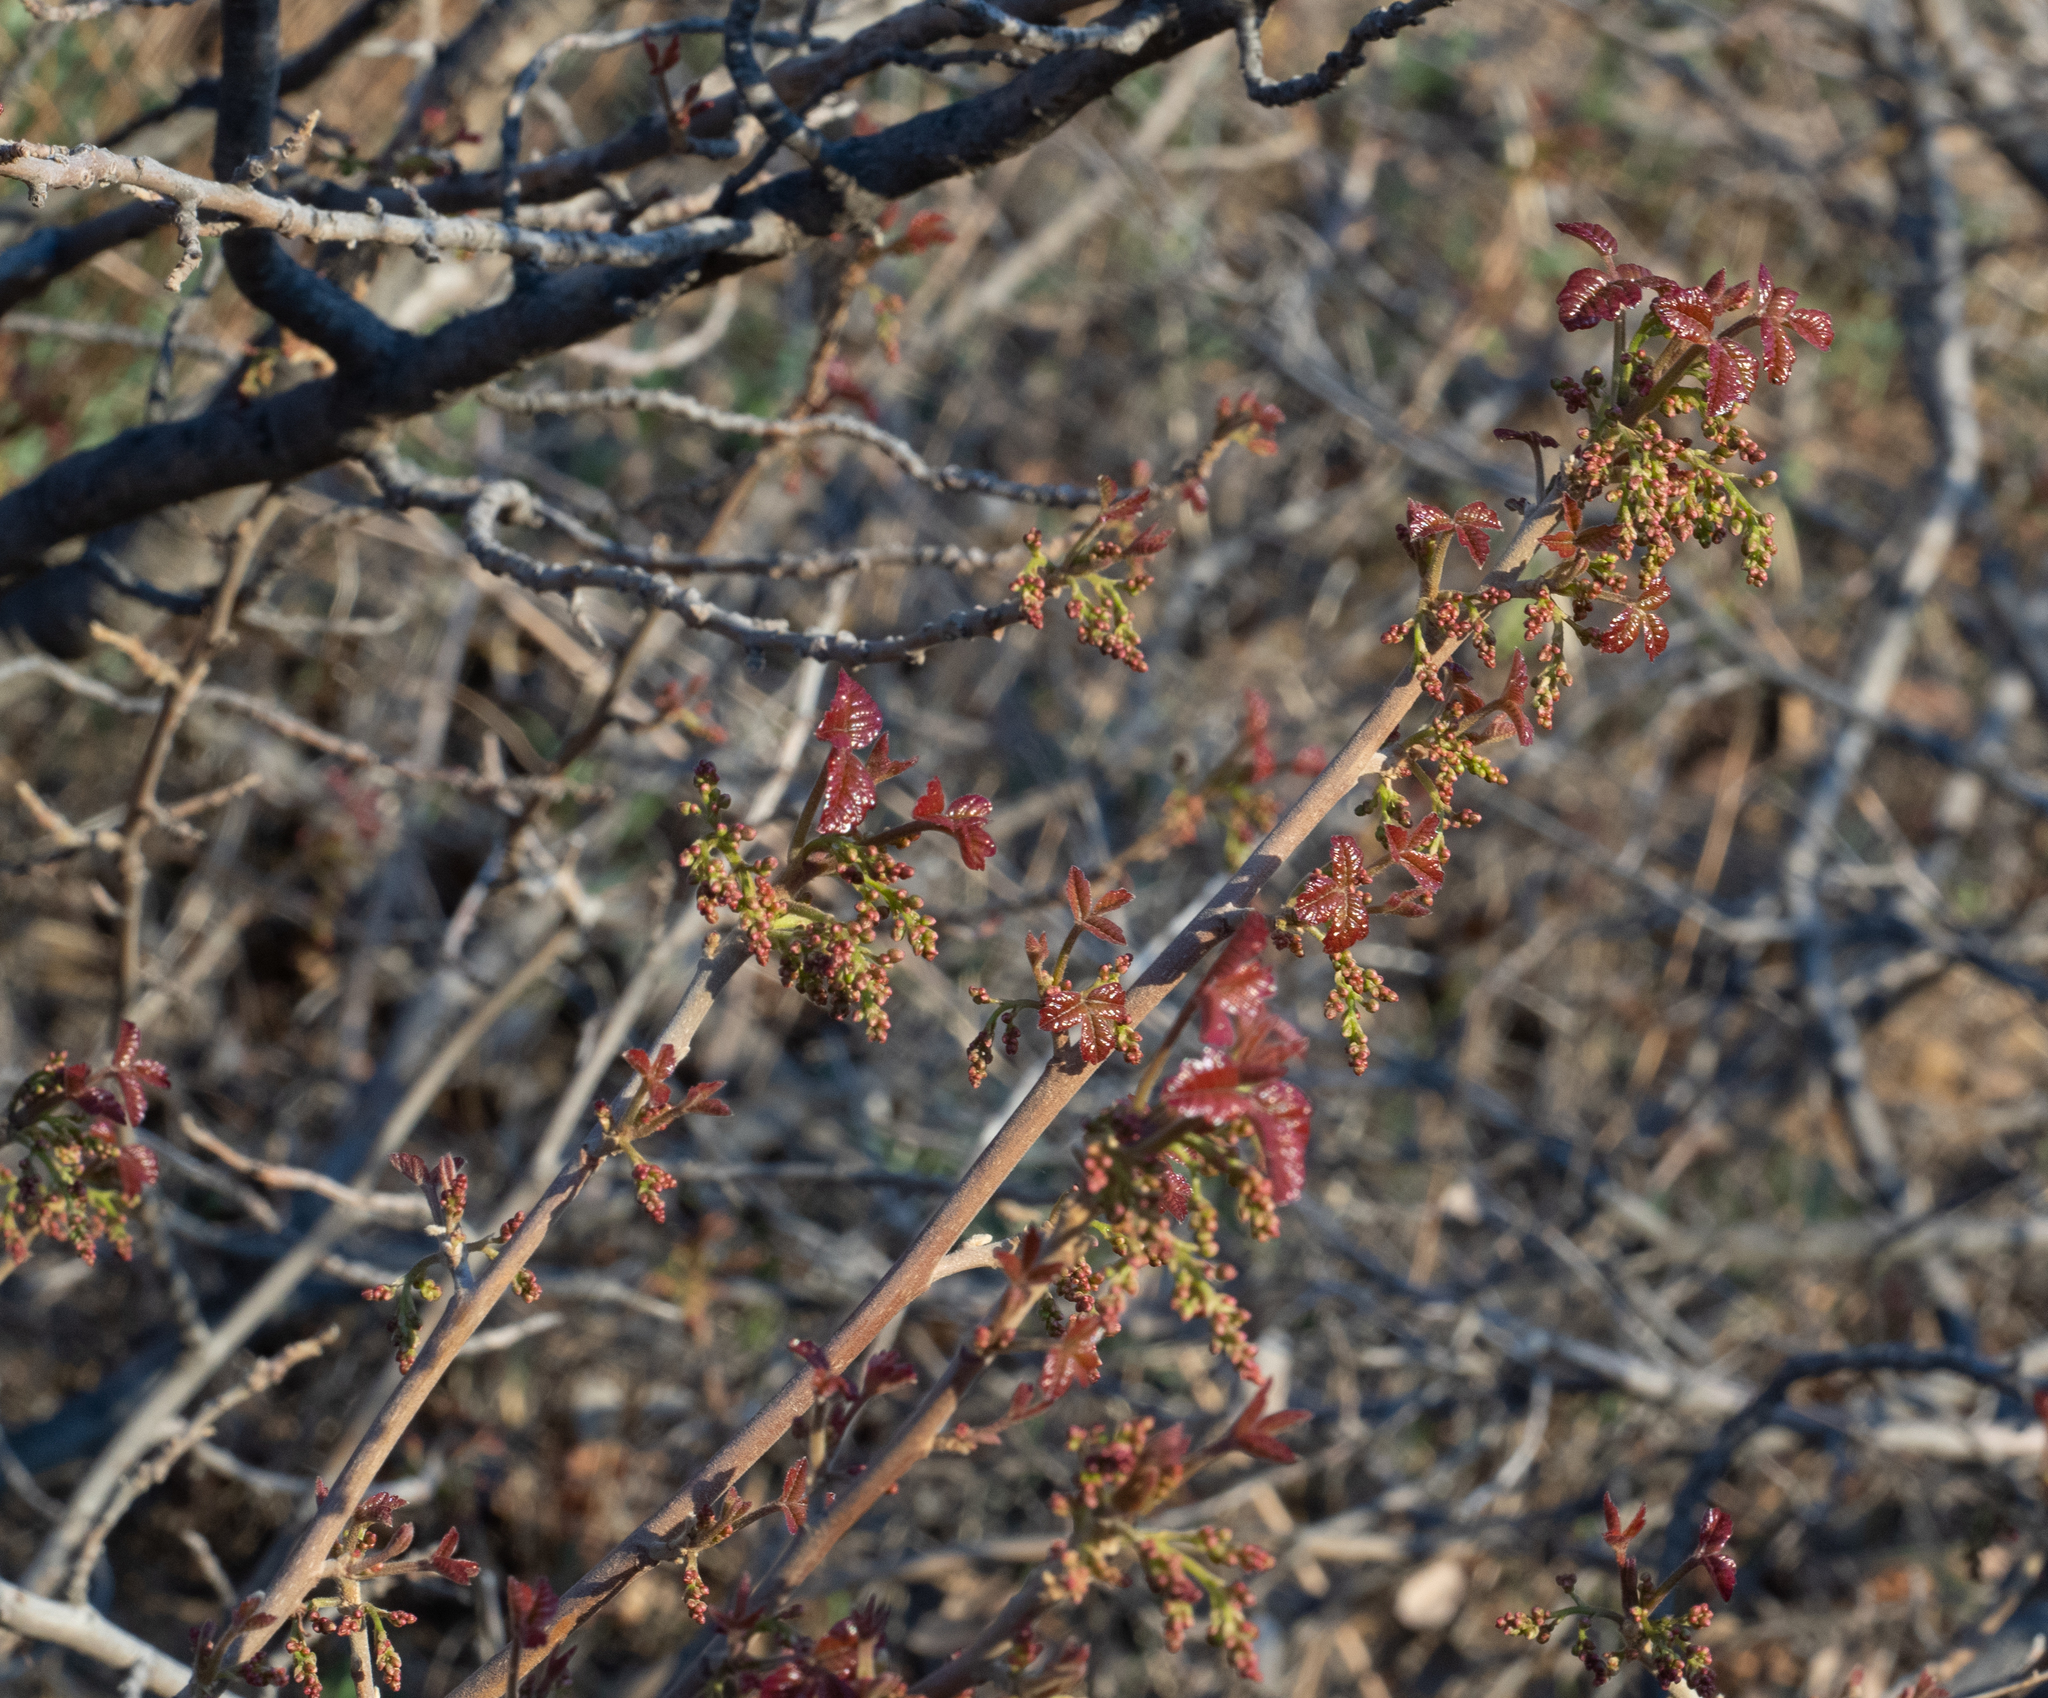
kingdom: Plantae
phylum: Tracheophyta
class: Magnoliopsida
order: Sapindales
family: Anacardiaceae
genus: Toxicodendron
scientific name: Toxicodendron diversilobum
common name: Pacific poison-oak
